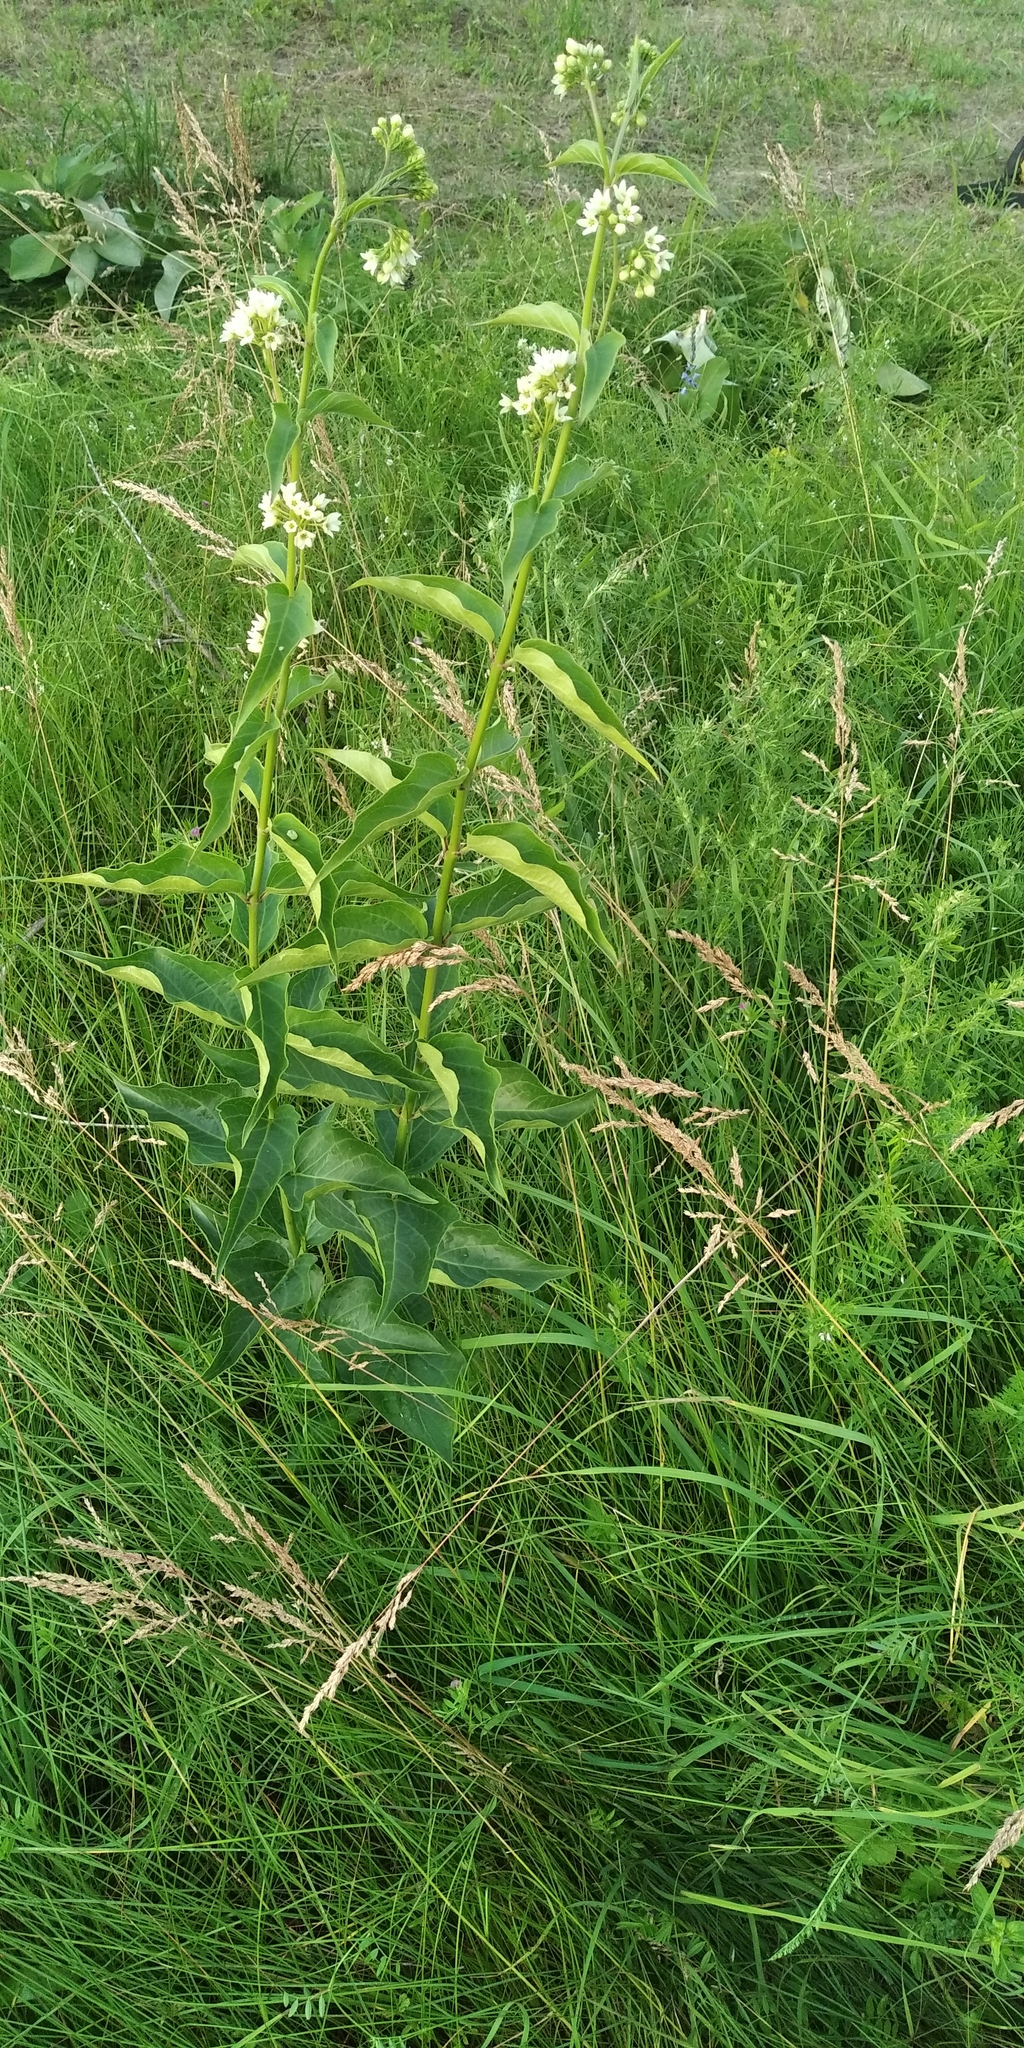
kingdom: Plantae
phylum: Tracheophyta
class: Magnoliopsida
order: Gentianales
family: Apocynaceae
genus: Vincetoxicum
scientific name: Vincetoxicum hirundinaria
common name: White swallowwort
